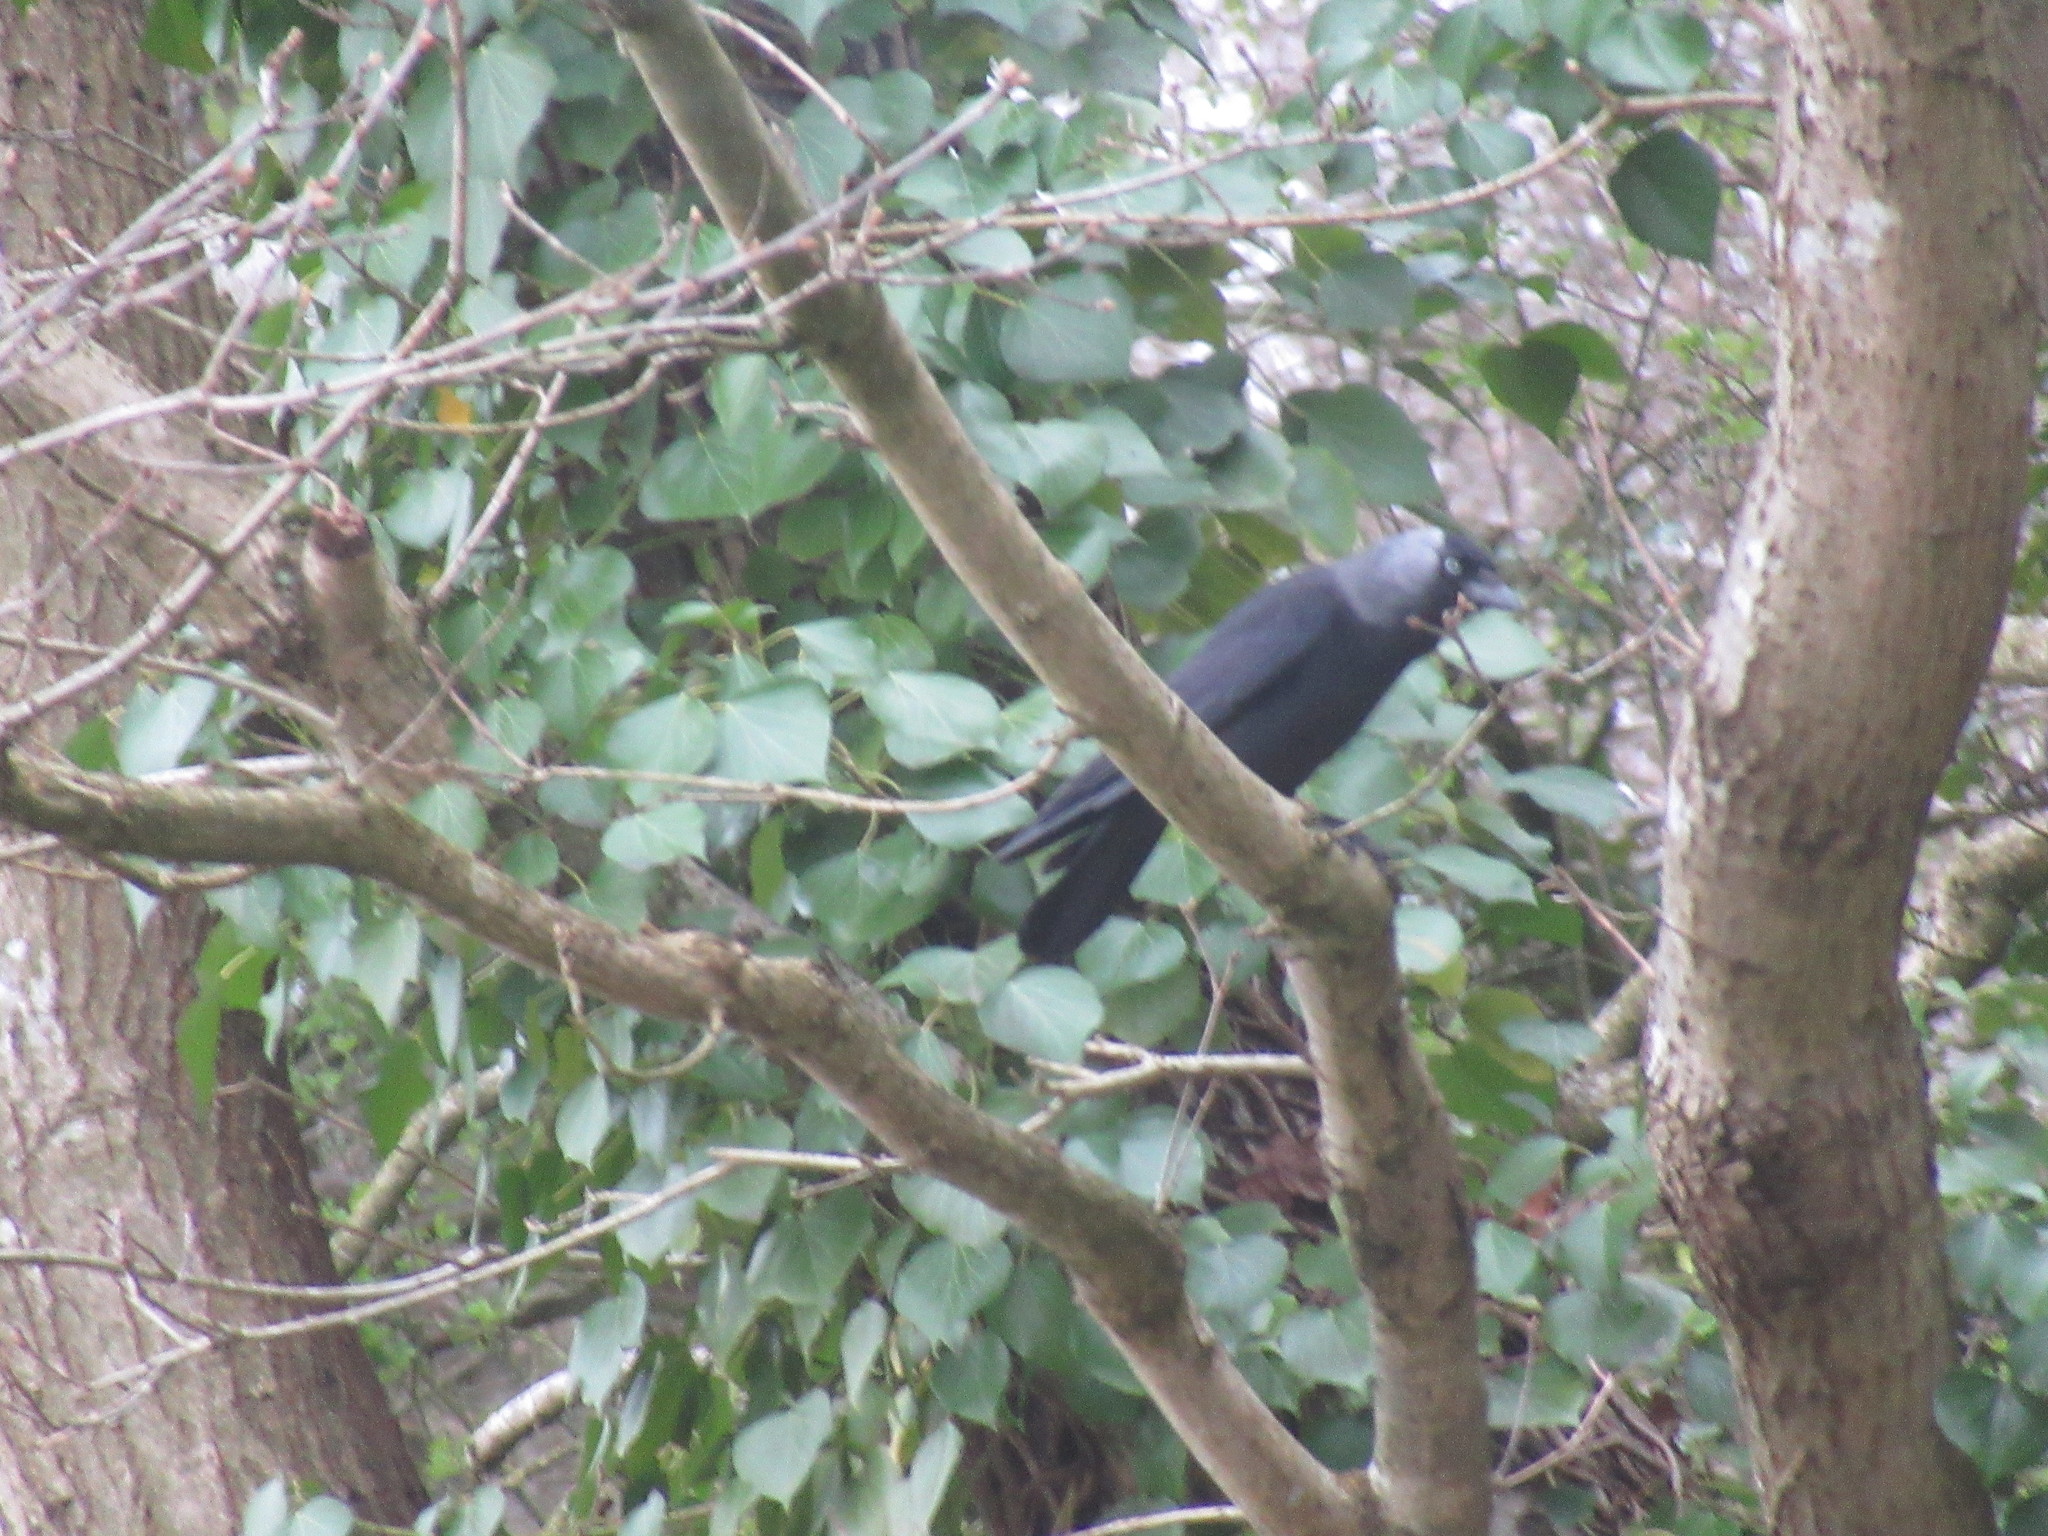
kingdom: Animalia
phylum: Chordata
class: Aves
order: Passeriformes
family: Corvidae
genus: Coloeus
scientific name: Coloeus monedula
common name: Western jackdaw
